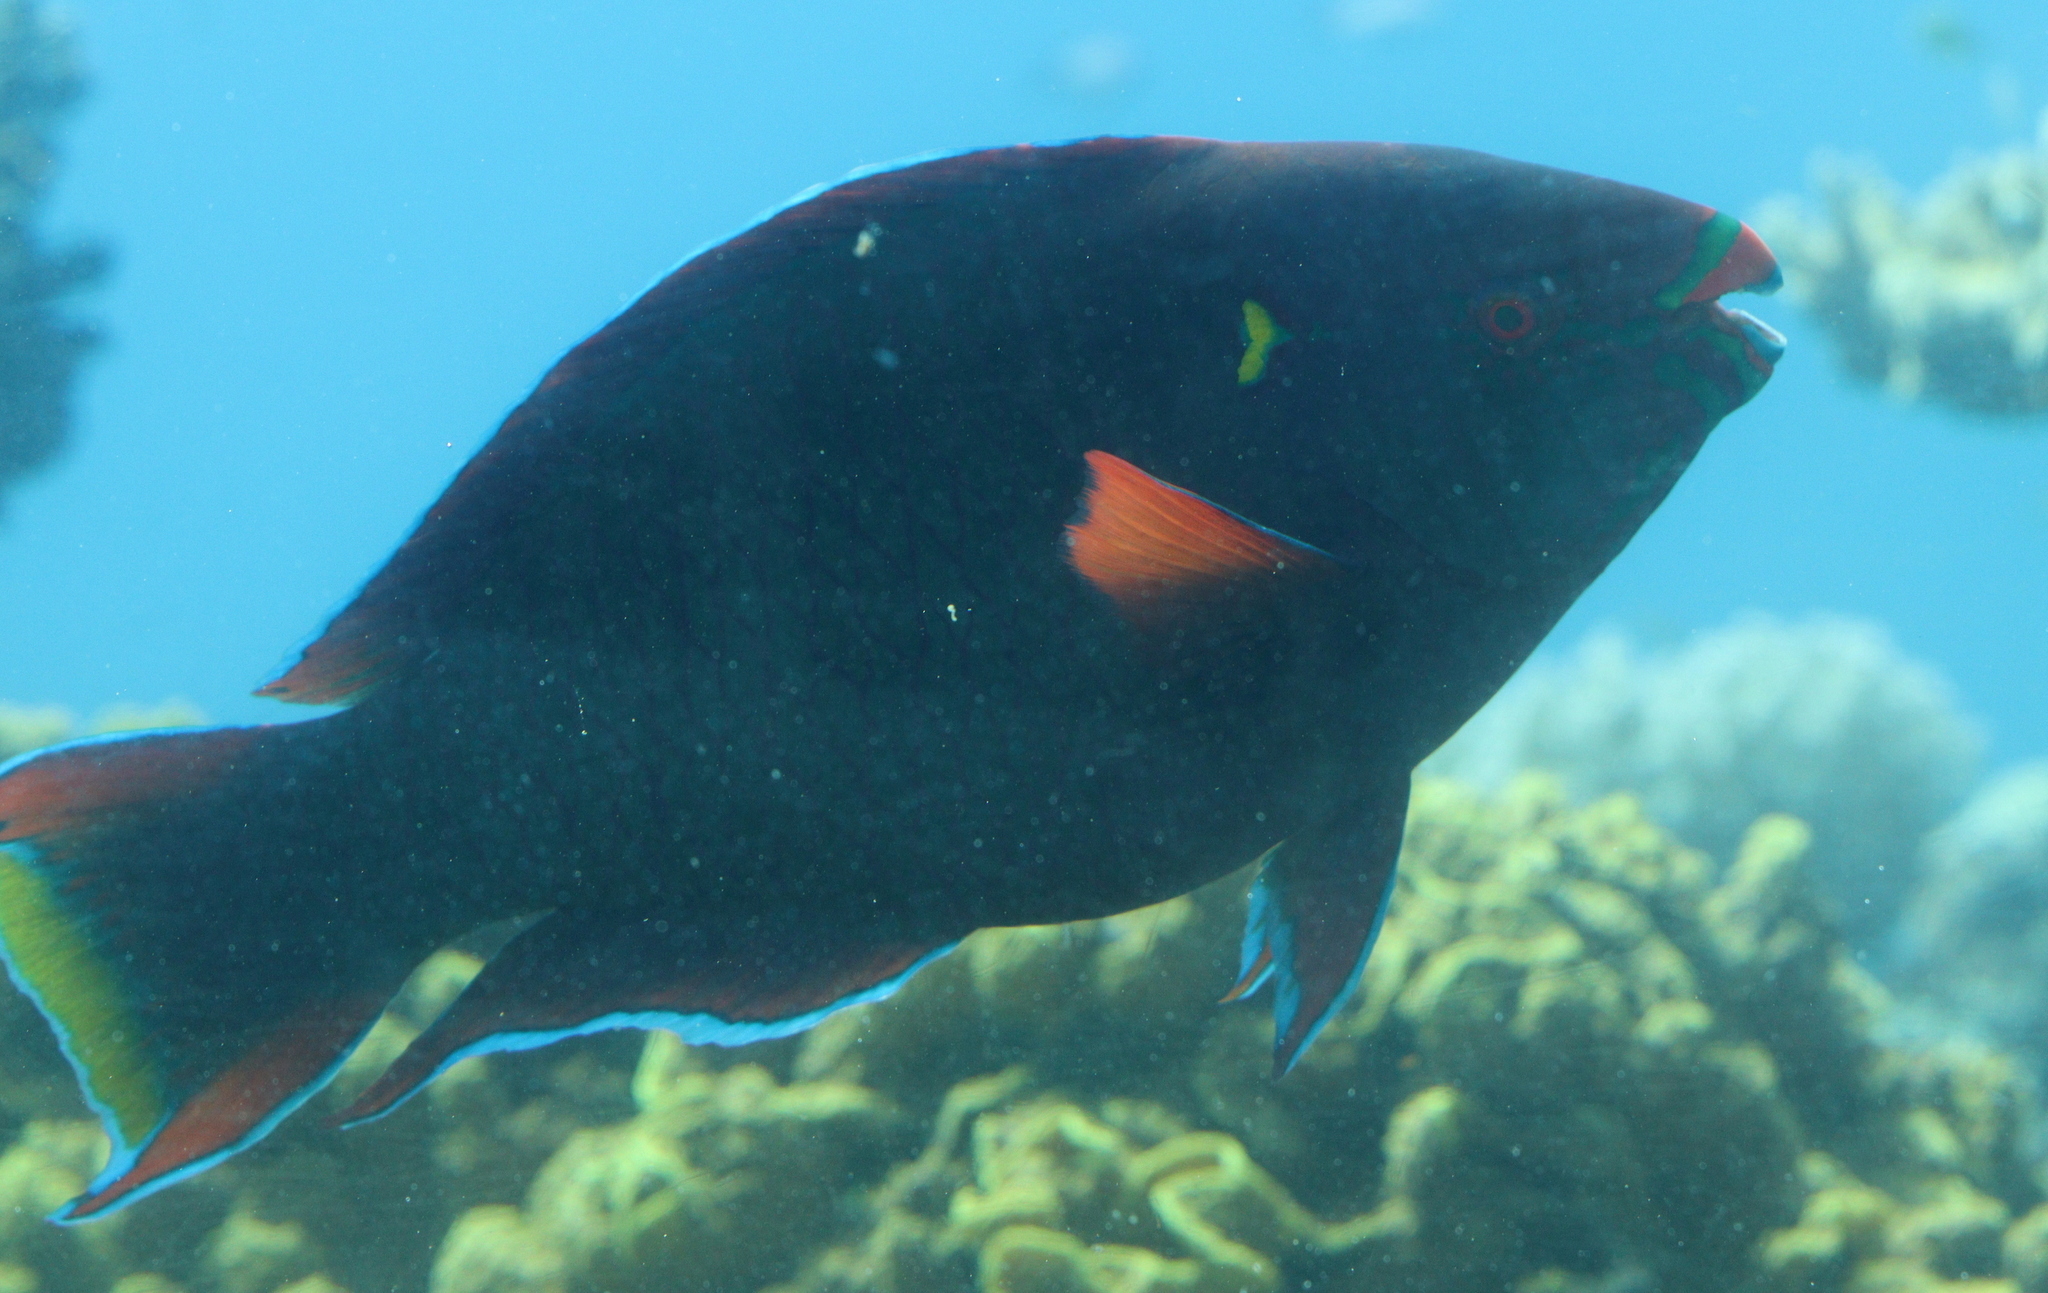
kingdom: Animalia
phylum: Chordata
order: Perciformes
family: Scaridae
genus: Scarus
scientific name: Scarus niger
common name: Dusky parrotfish
